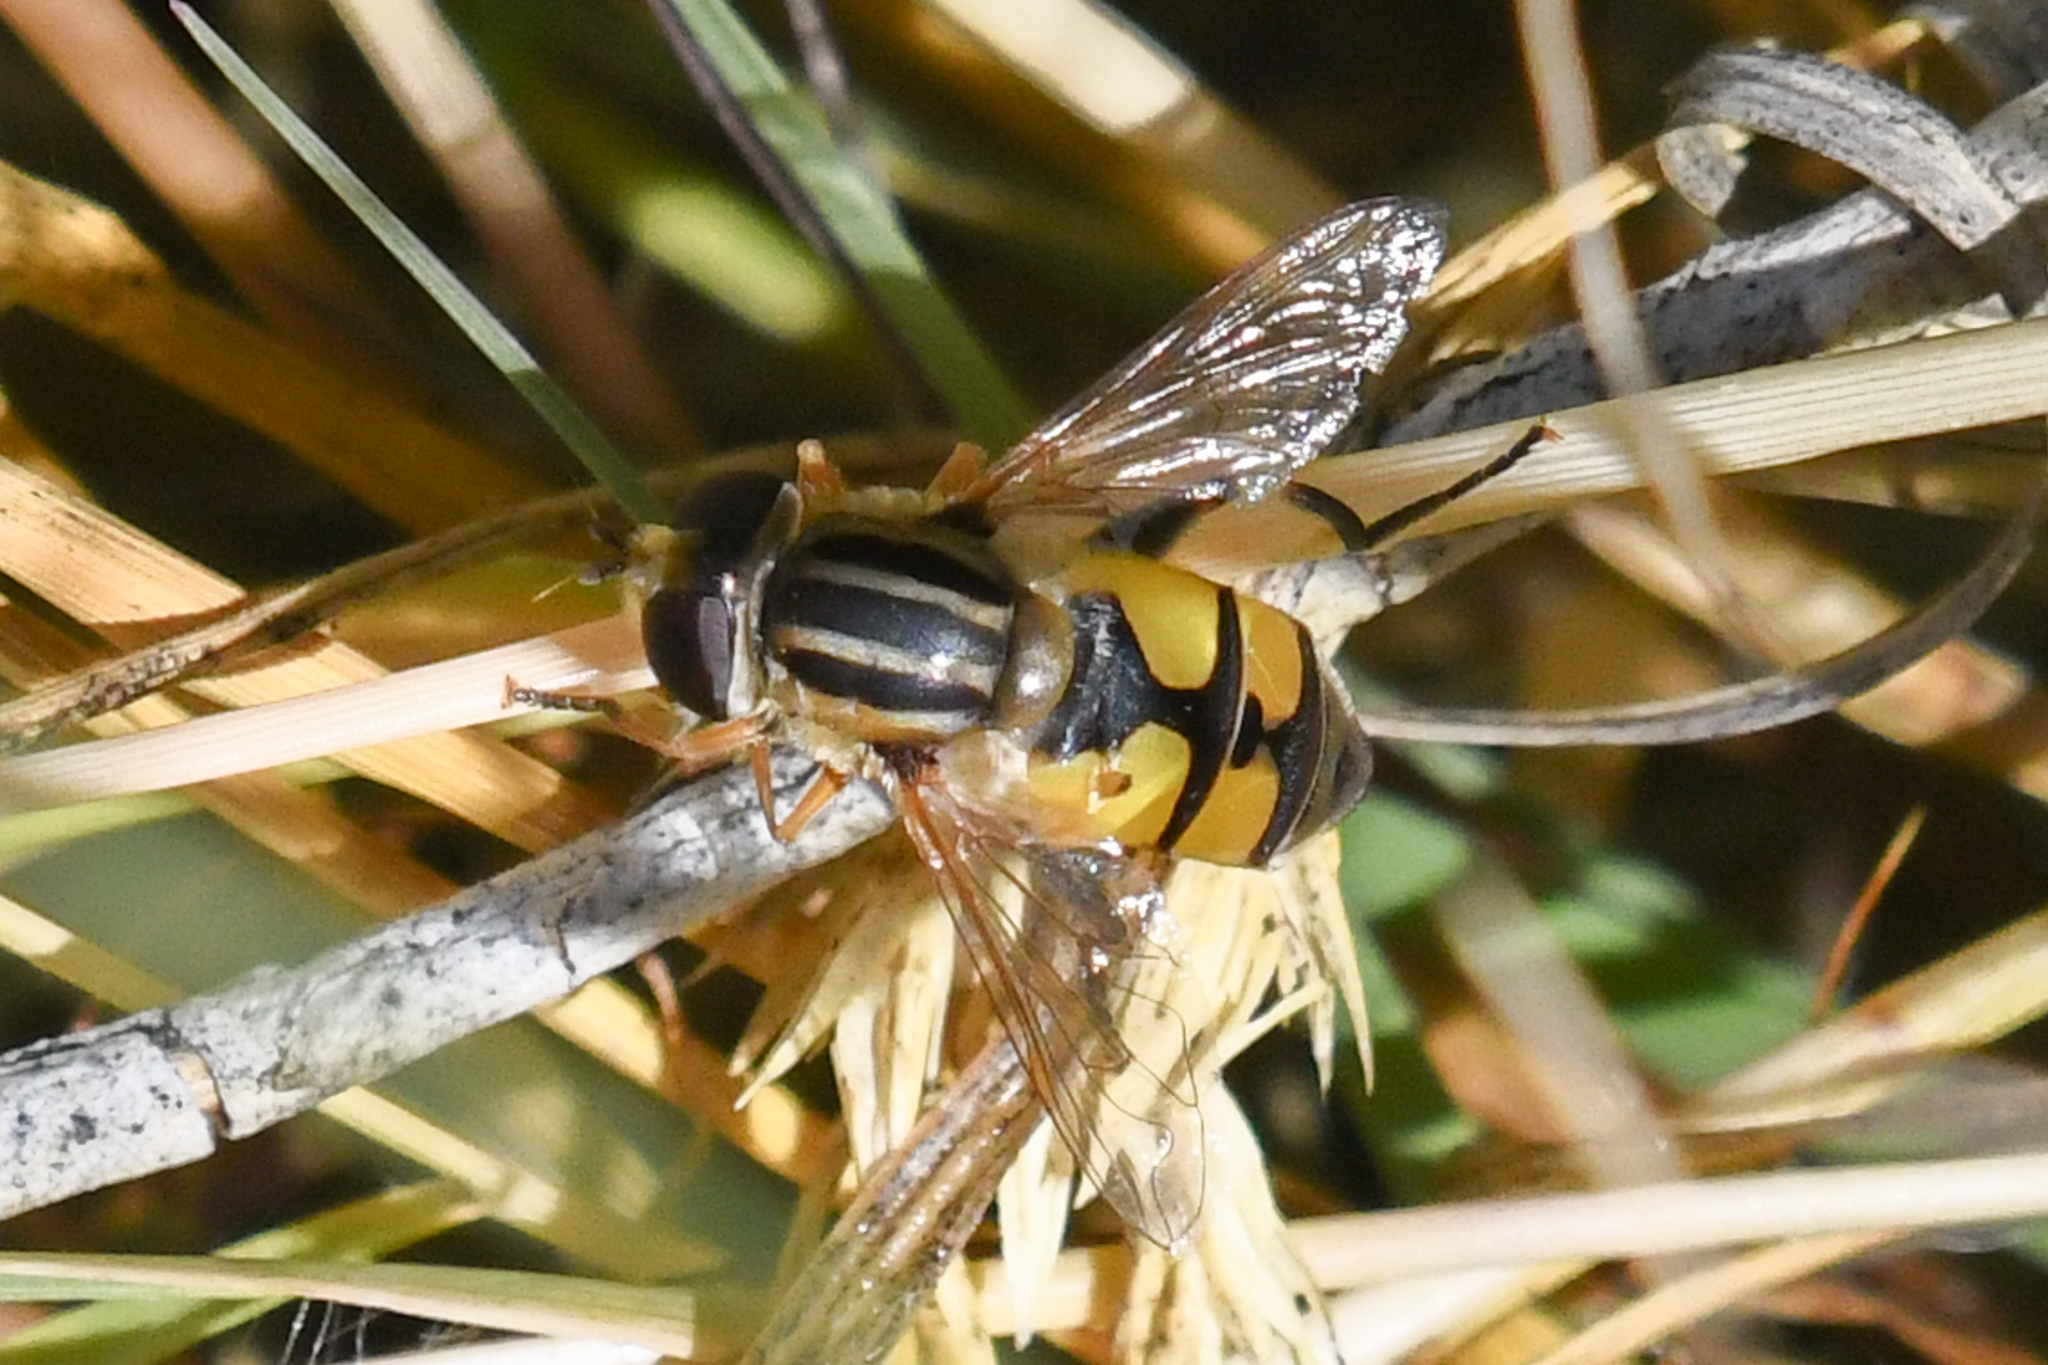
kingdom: Animalia
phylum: Arthropoda
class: Insecta
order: Diptera
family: Syrphidae
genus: Helophilus
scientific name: Helophilus latifrons
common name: Broad-headed marsh fly
